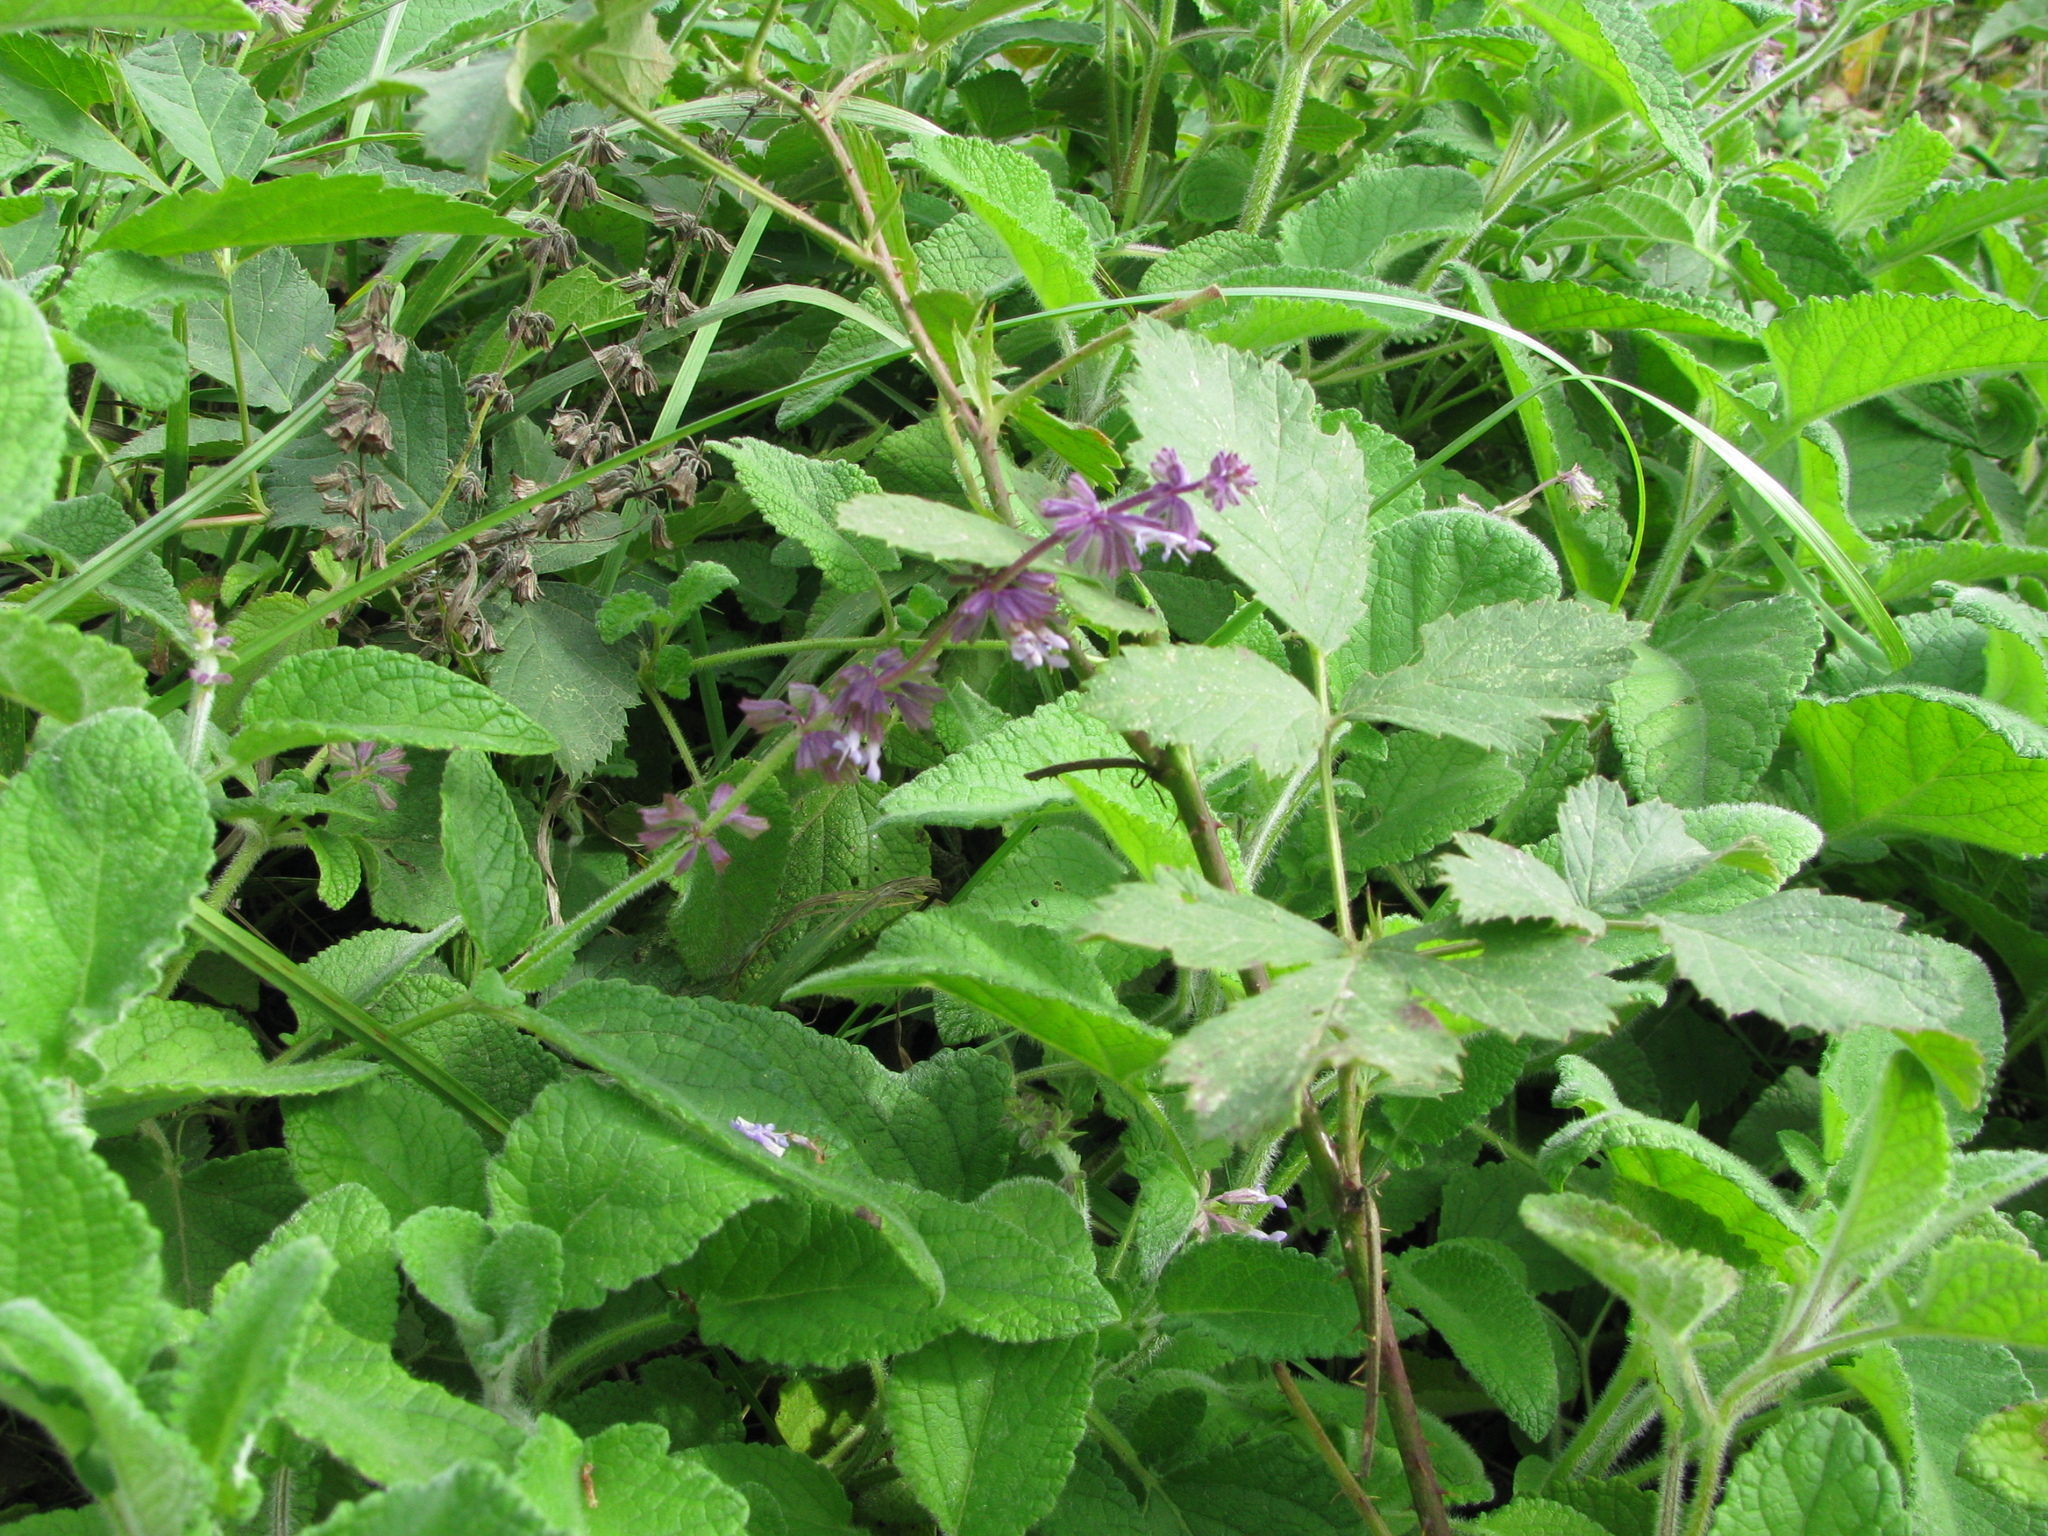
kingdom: Plantae
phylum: Tracheophyta
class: Magnoliopsida
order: Lamiales
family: Lamiaceae
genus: Salvia
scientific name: Salvia verticillata
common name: Whorled clary
